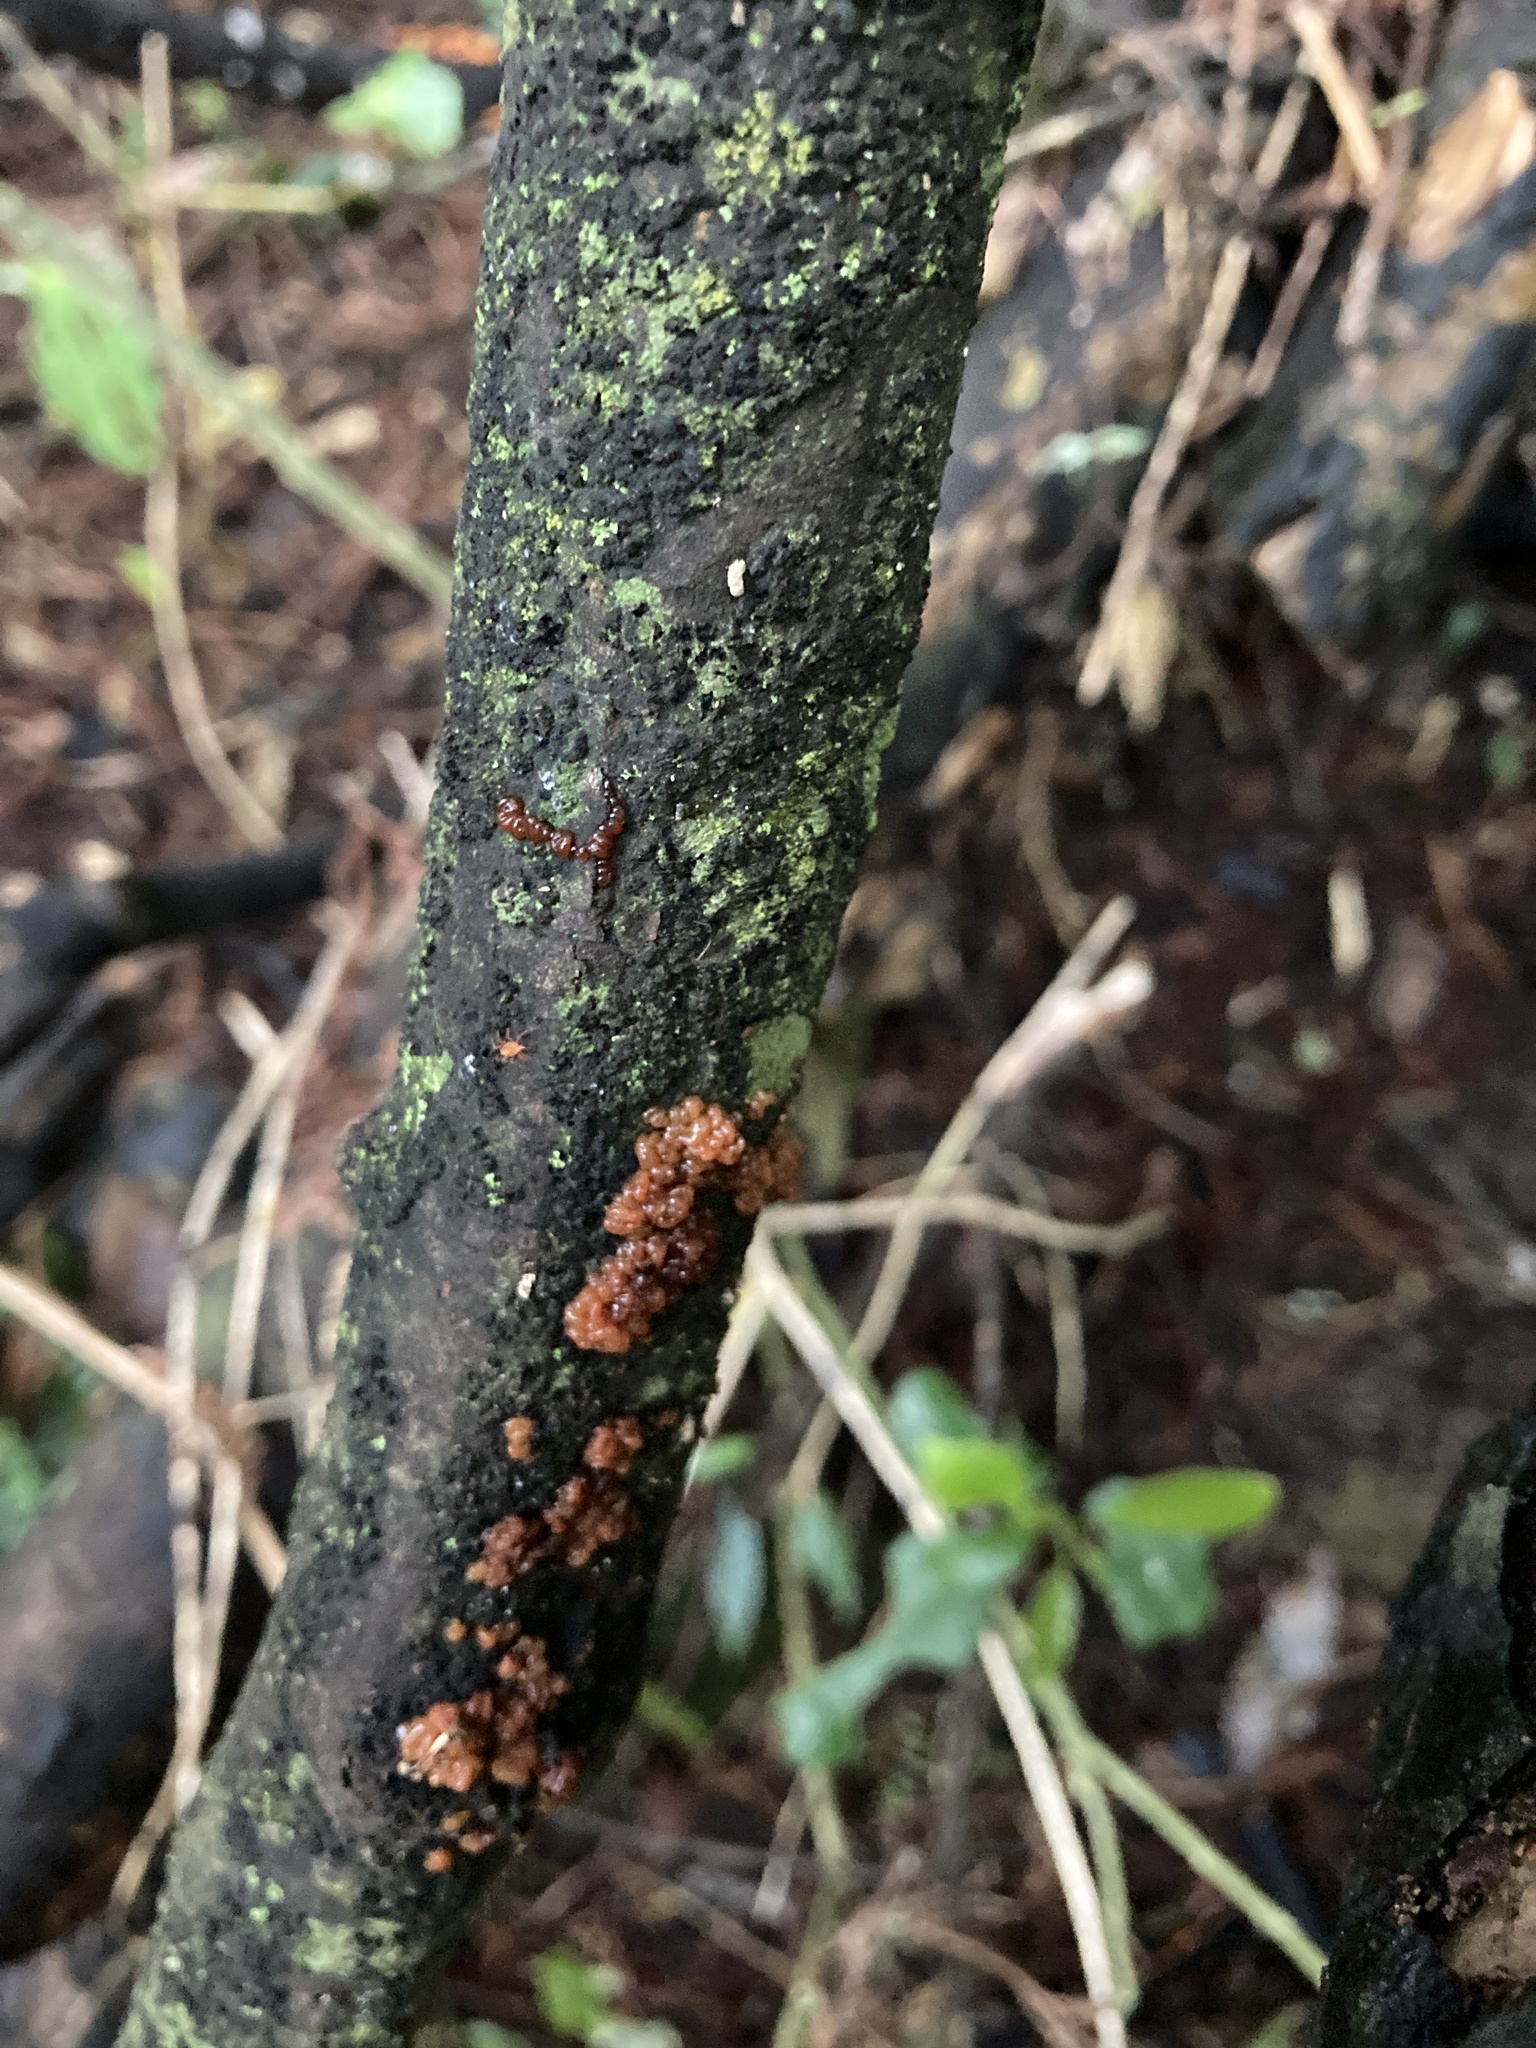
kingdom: Fungi
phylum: Basidiomycota
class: Tremellomycetes
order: Tremellales
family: Tremellaceae
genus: Tremella
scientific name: Tremella vesiculosa
